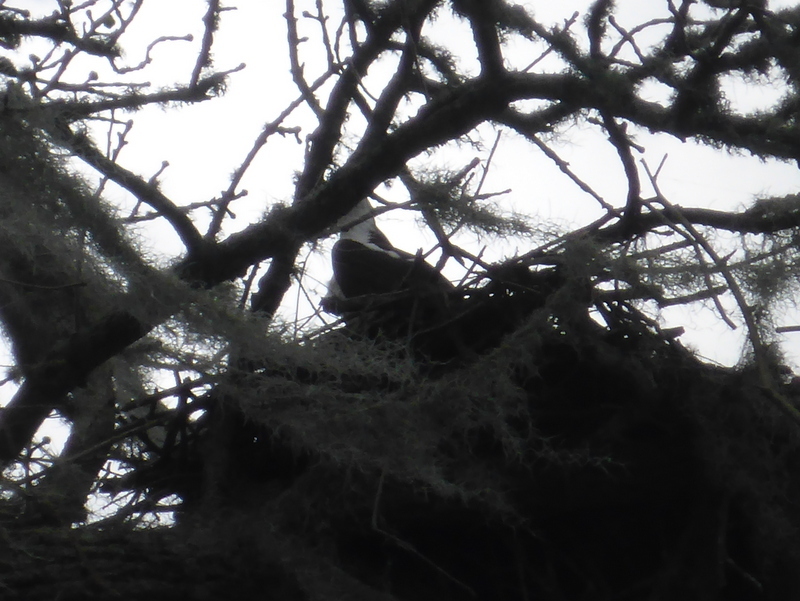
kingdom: Animalia
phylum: Chordata
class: Aves
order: Accipitriformes
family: Pandionidae
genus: Pandion
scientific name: Pandion haliaetus
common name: Osprey
